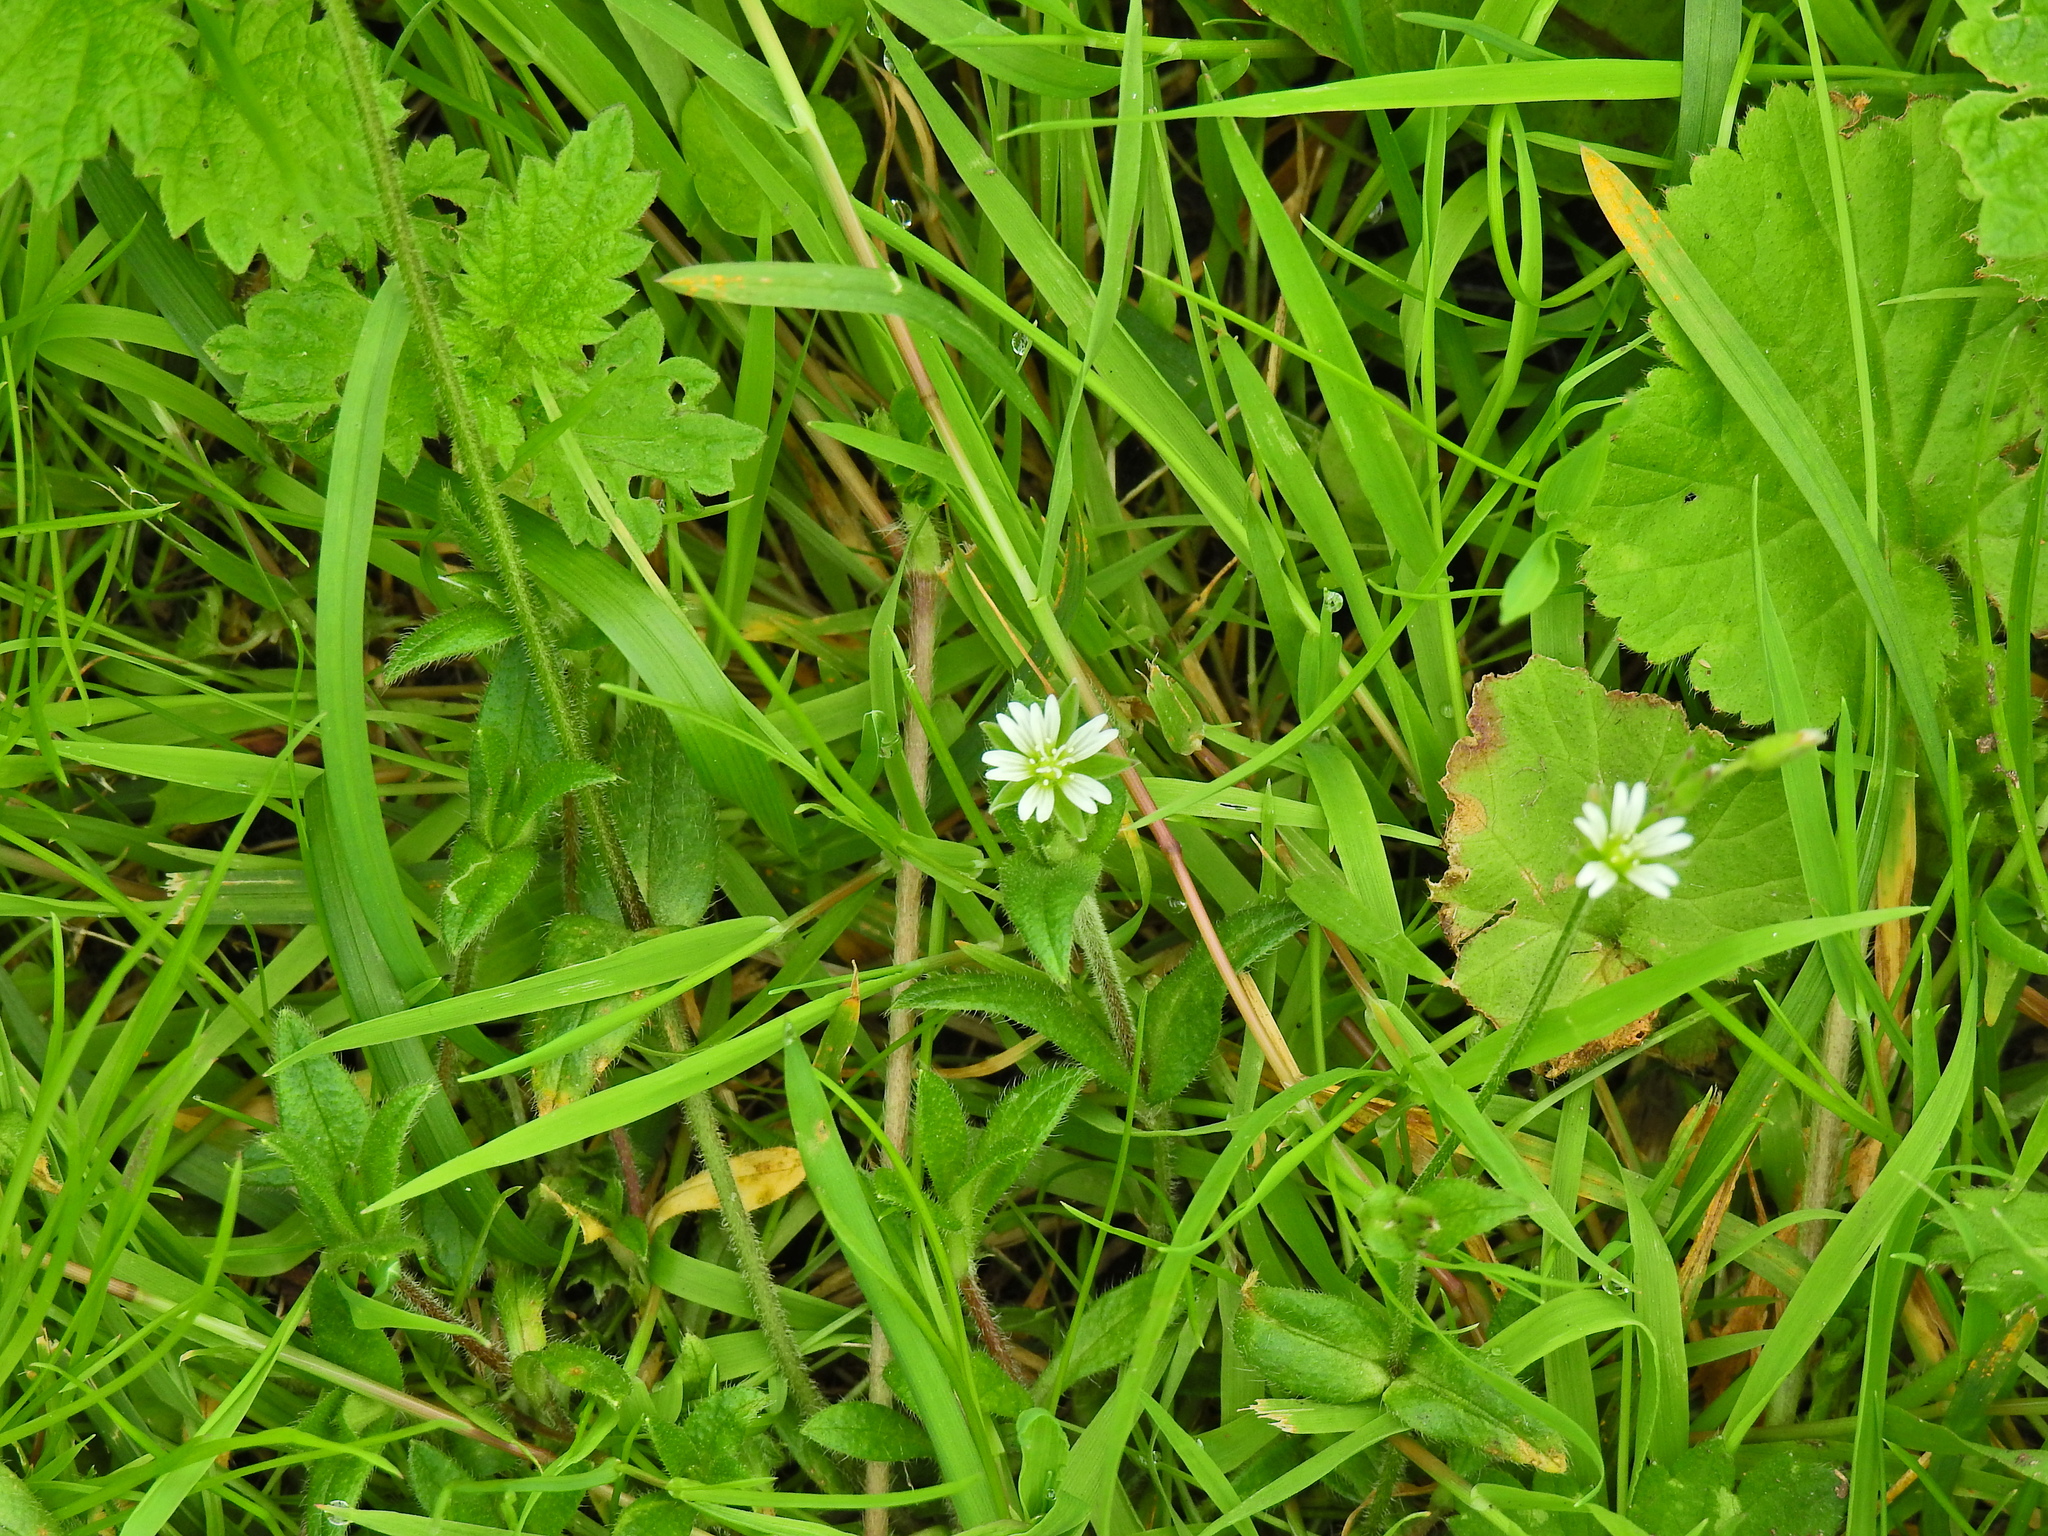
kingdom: Plantae
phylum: Tracheophyta
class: Magnoliopsida
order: Caryophyllales
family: Caryophyllaceae
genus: Cerastium
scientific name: Cerastium fontanum
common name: Common mouse-ear
